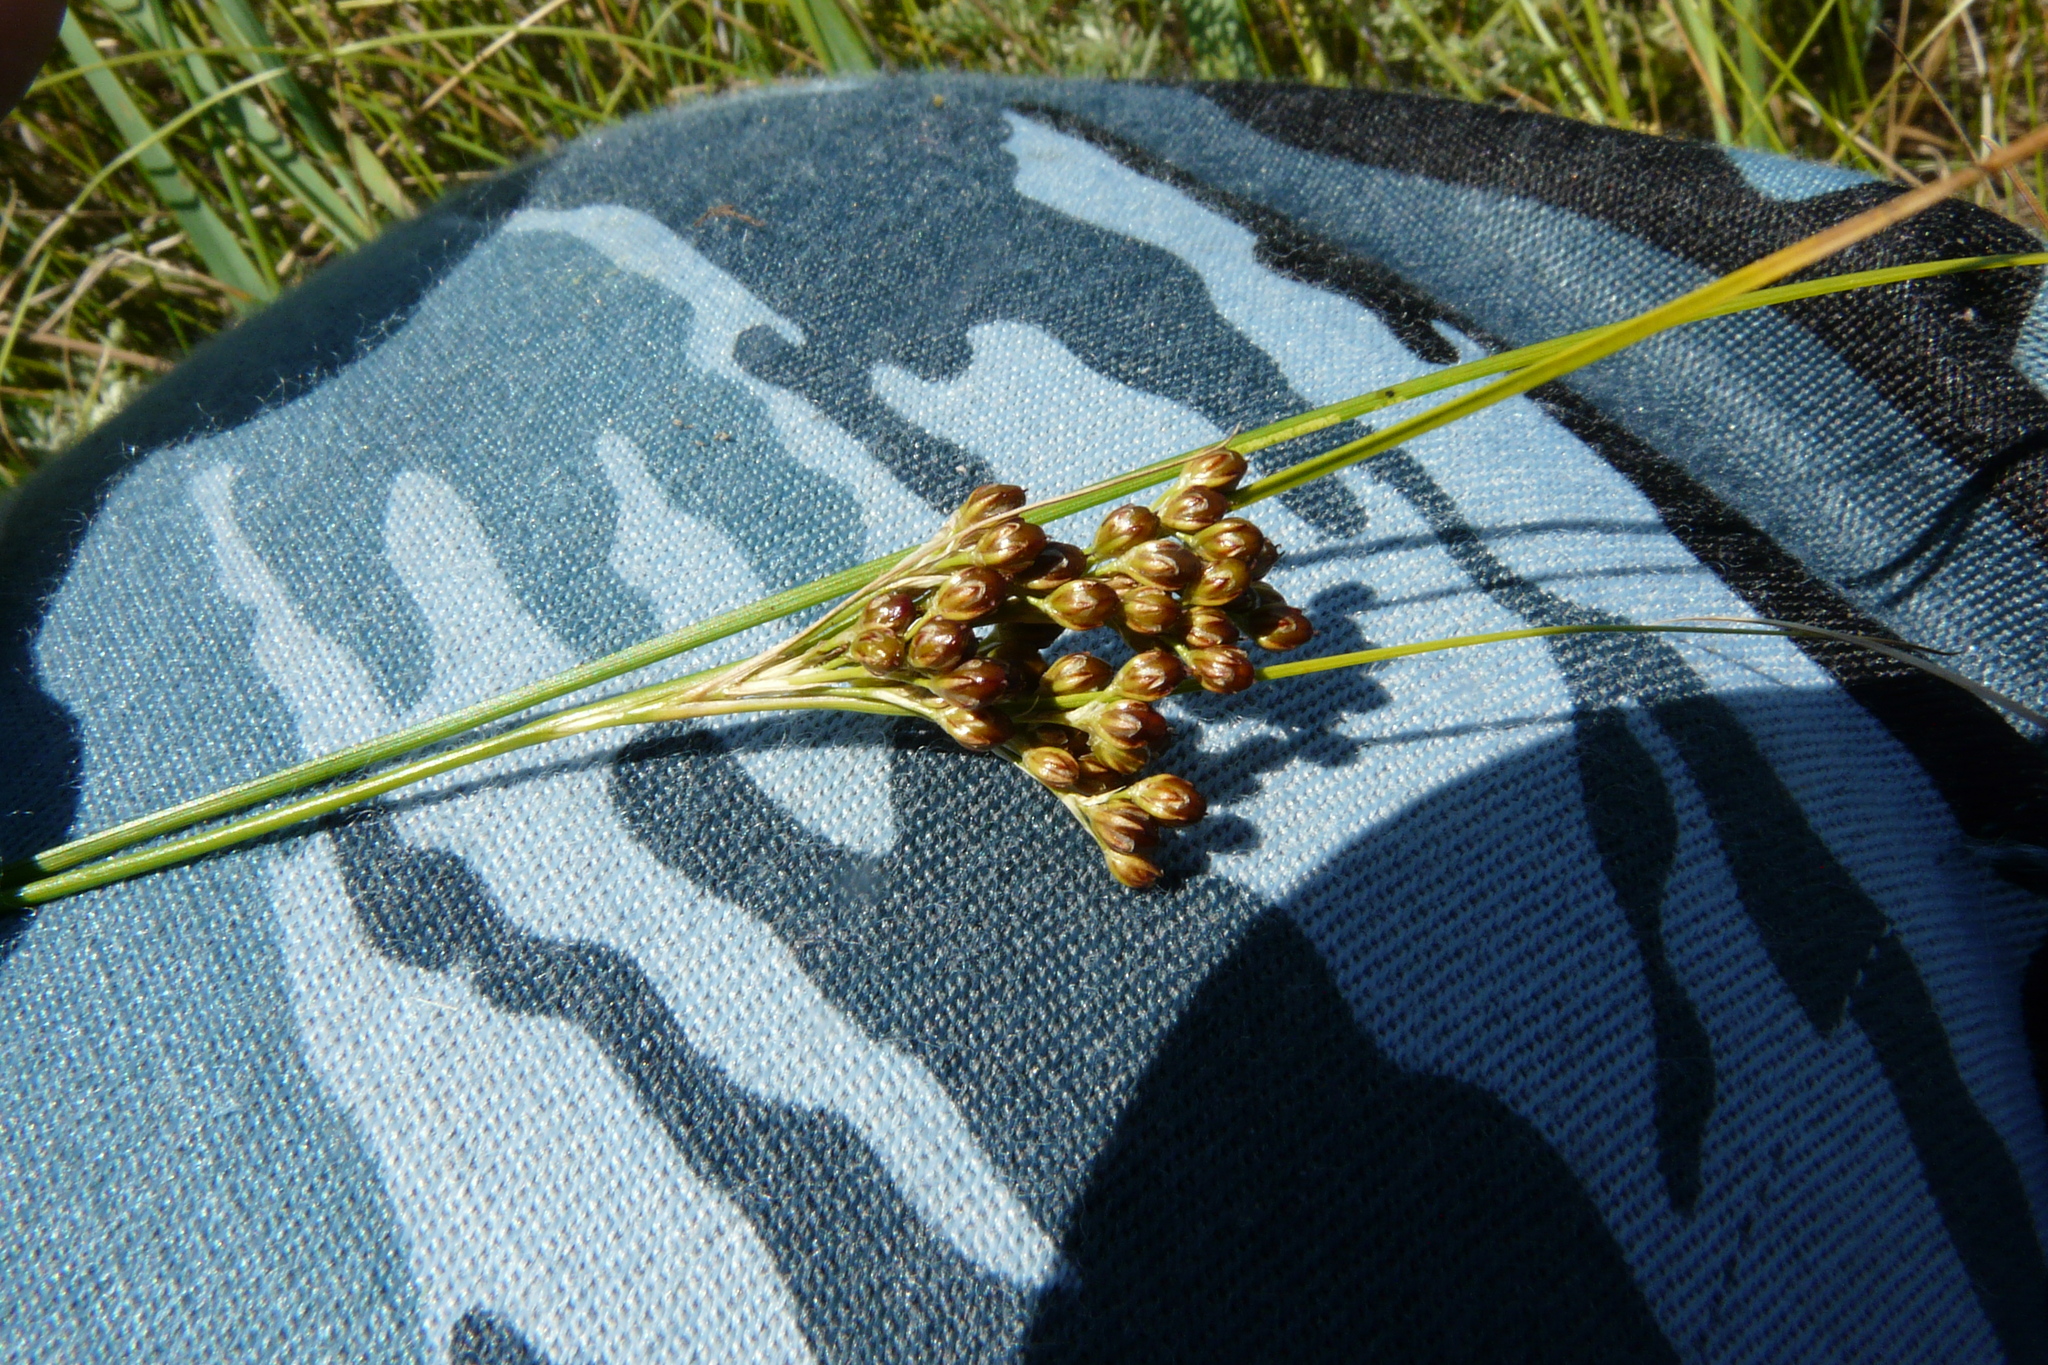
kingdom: Plantae
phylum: Tracheophyta
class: Liliopsida
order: Poales
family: Juncaceae
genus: Juncus
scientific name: Juncus compressus
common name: Round-fruited rush
